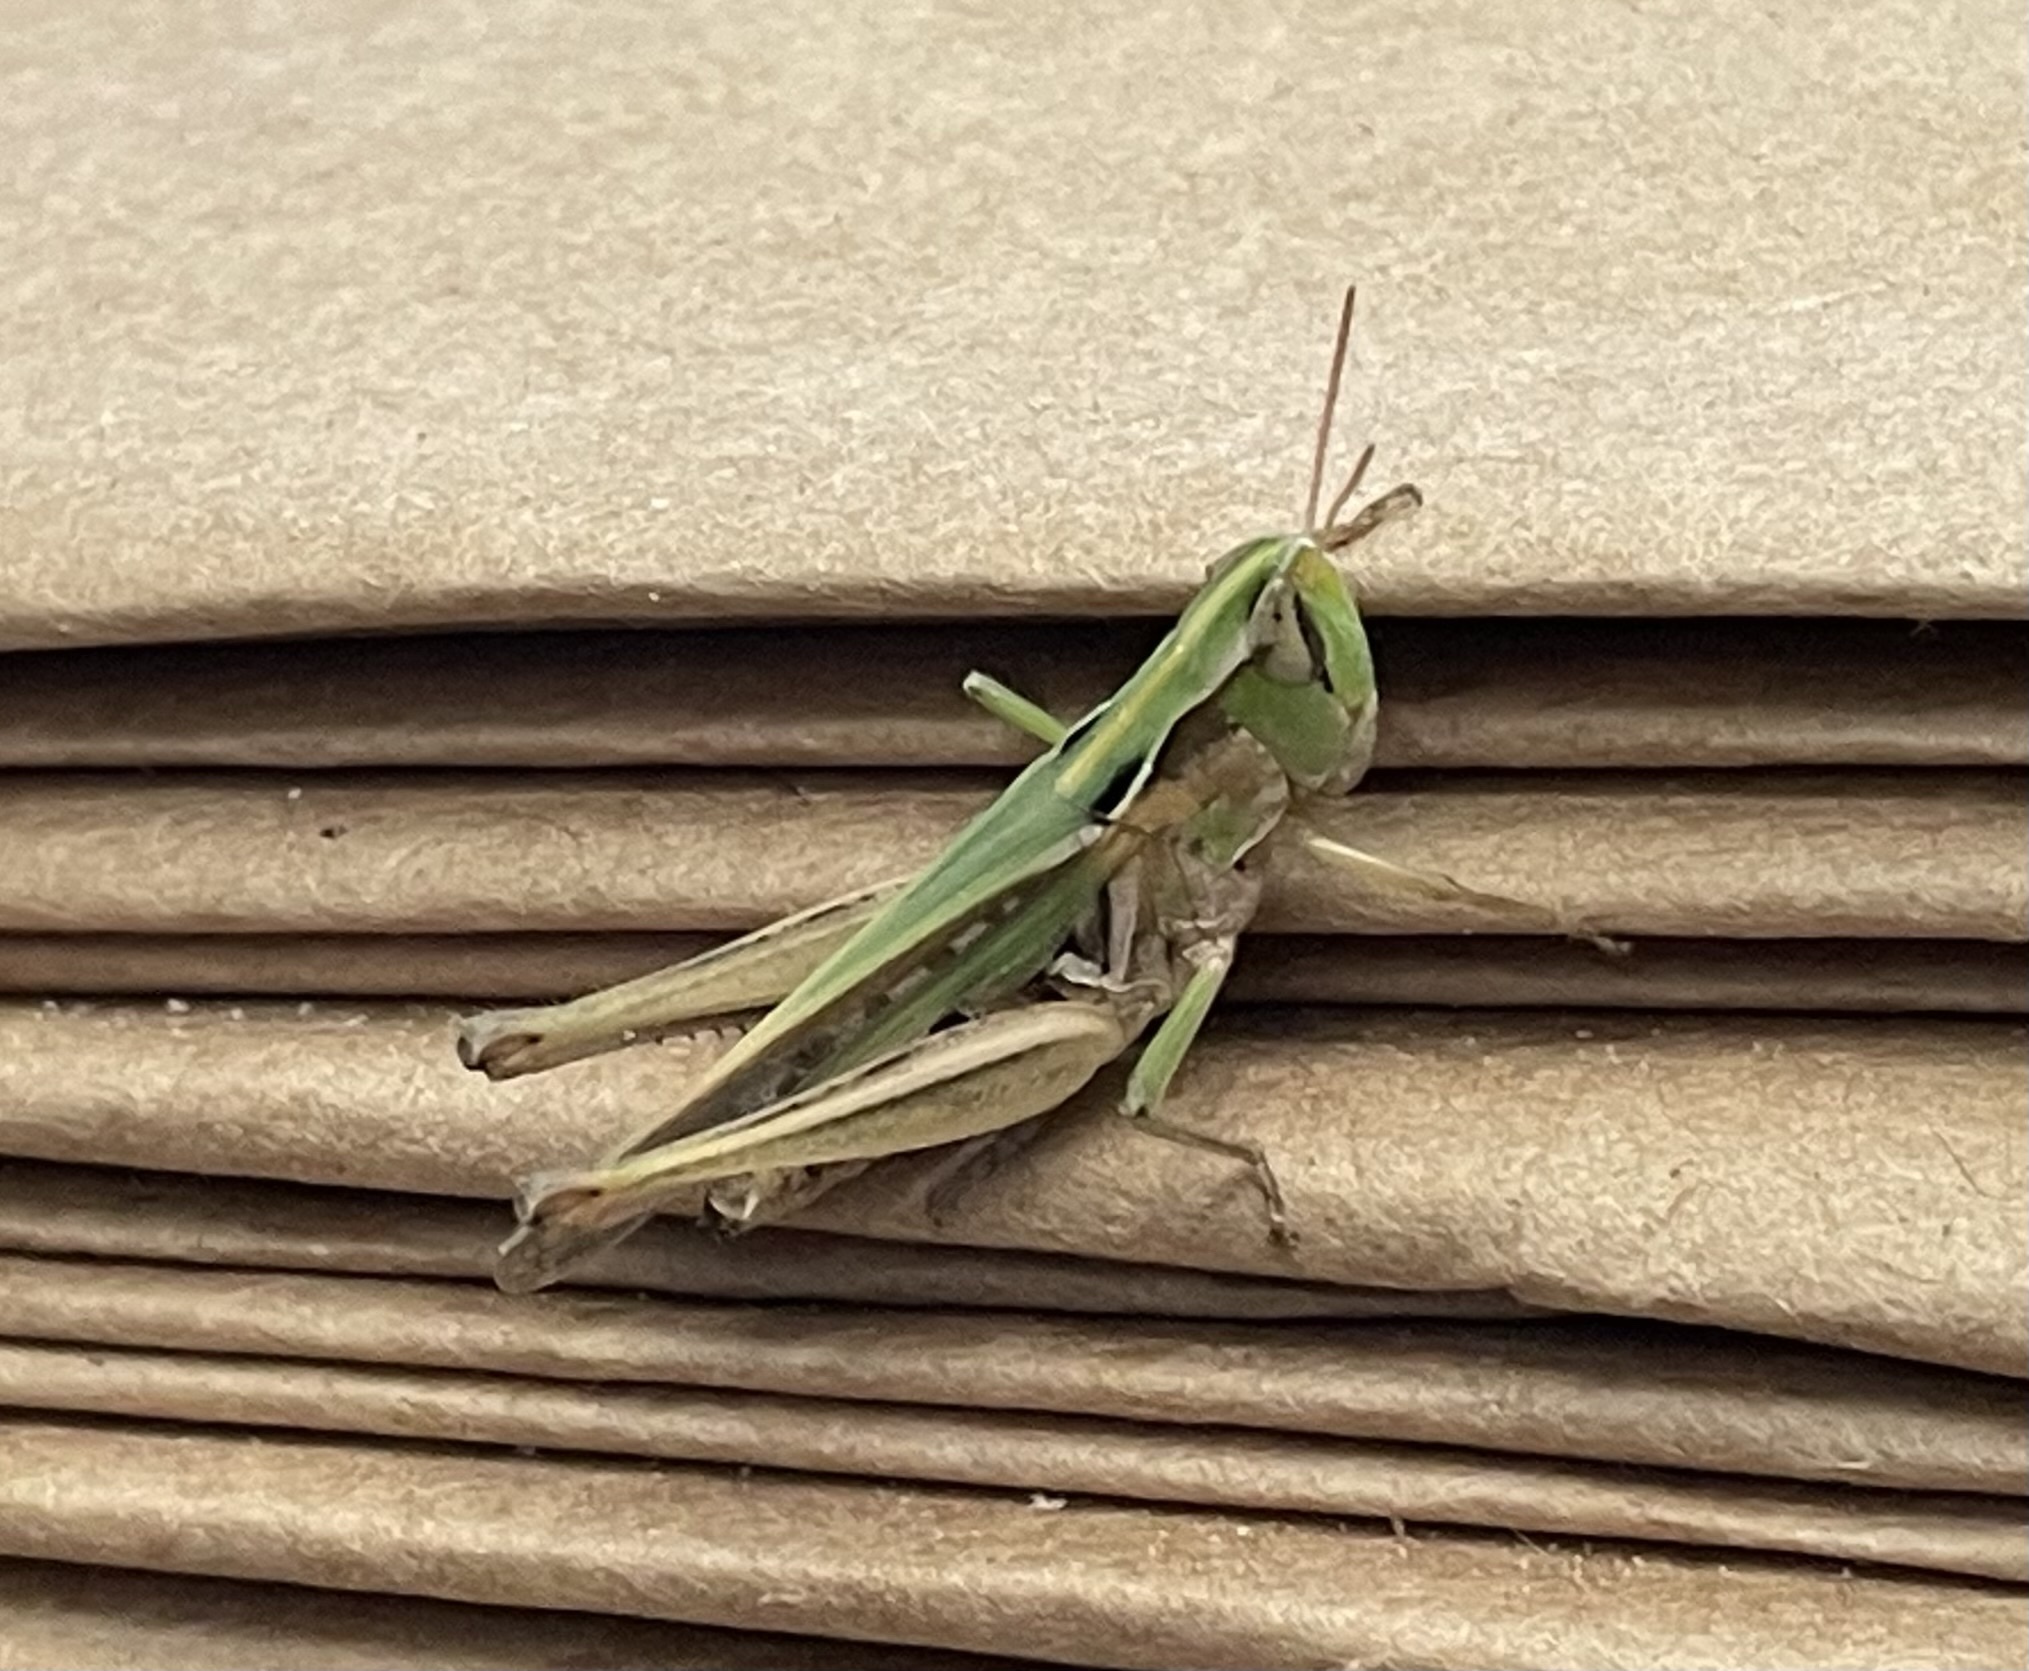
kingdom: Animalia
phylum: Arthropoda
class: Insecta
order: Orthoptera
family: Acrididae
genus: Orphulella
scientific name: Orphulella speciosa
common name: Pasture grasshopper
